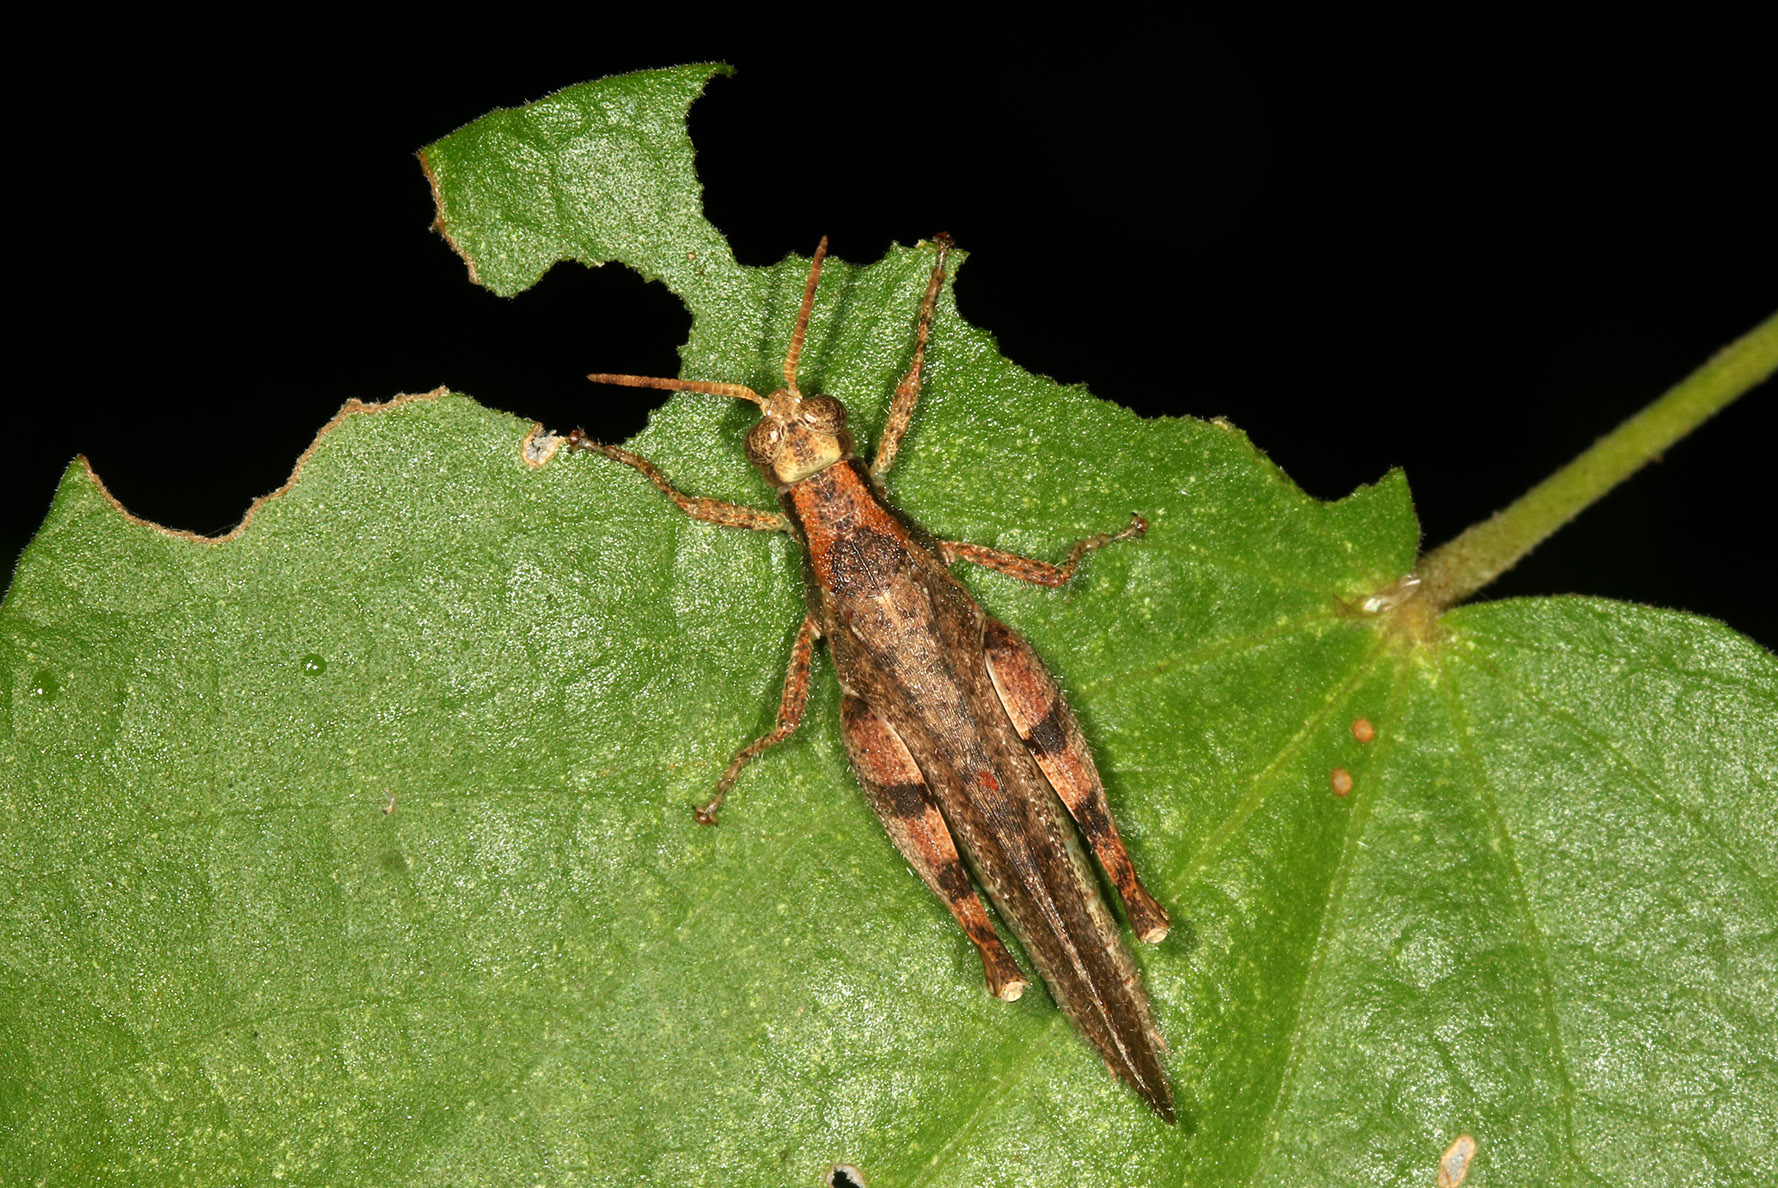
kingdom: Animalia
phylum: Arthropoda
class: Insecta
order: Orthoptera
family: Acrididae
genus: Omalotettix
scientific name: Omalotettix obliquus
